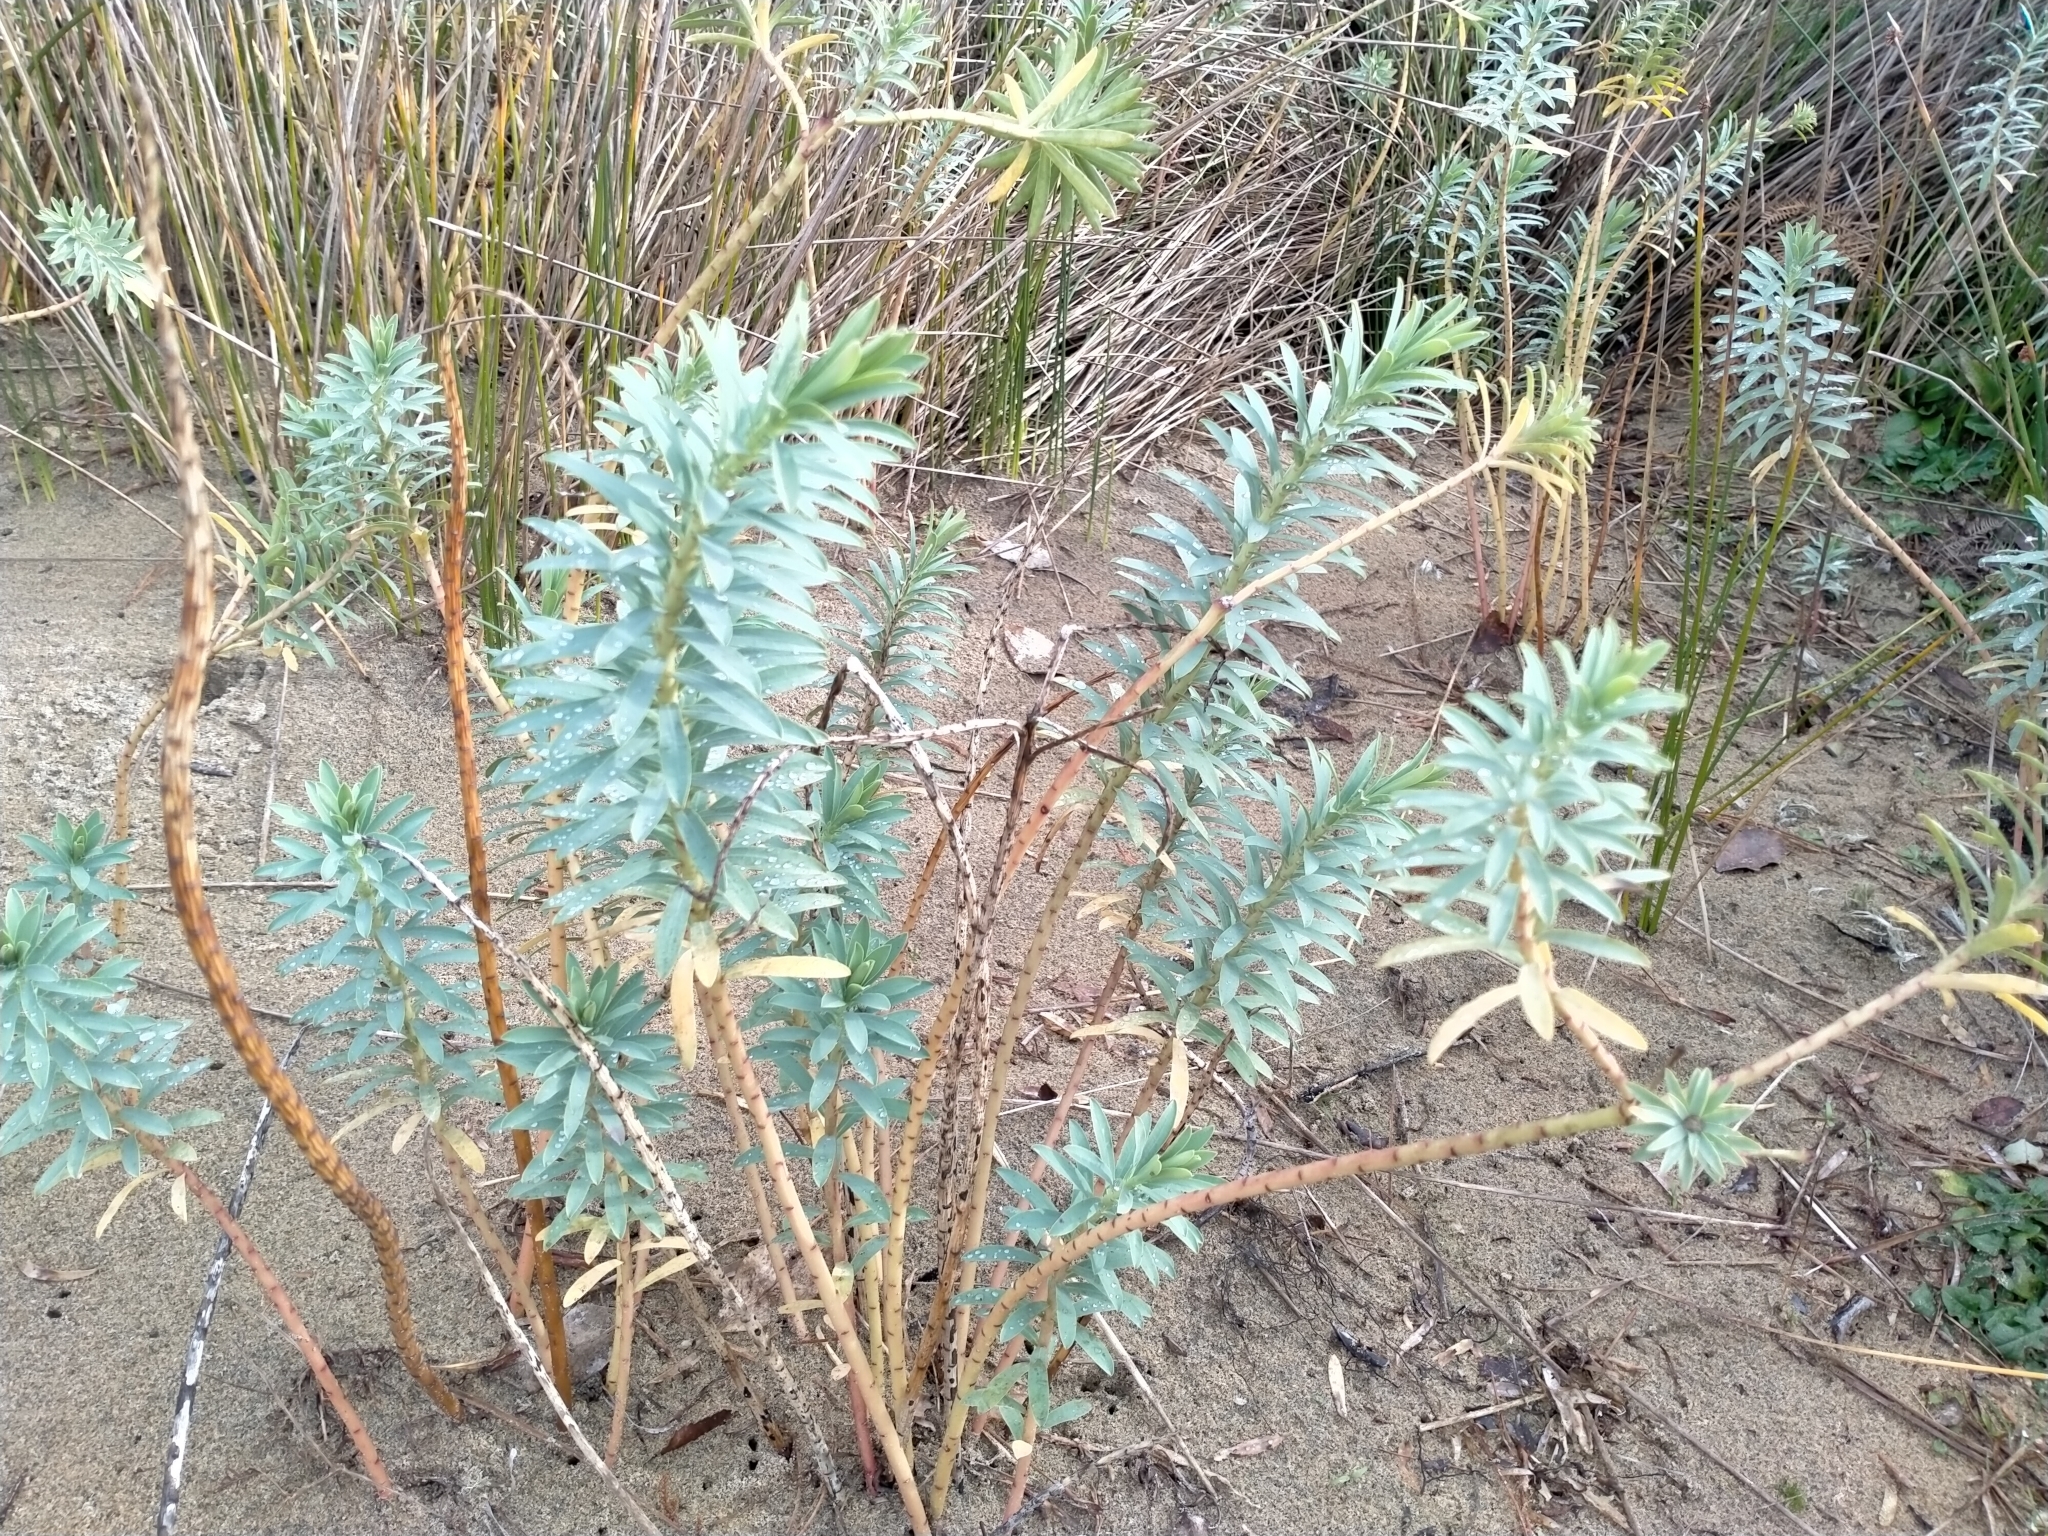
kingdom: Plantae
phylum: Tracheophyta
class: Magnoliopsida
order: Malpighiales
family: Euphorbiaceae
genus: Euphorbia
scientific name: Euphorbia glauca
